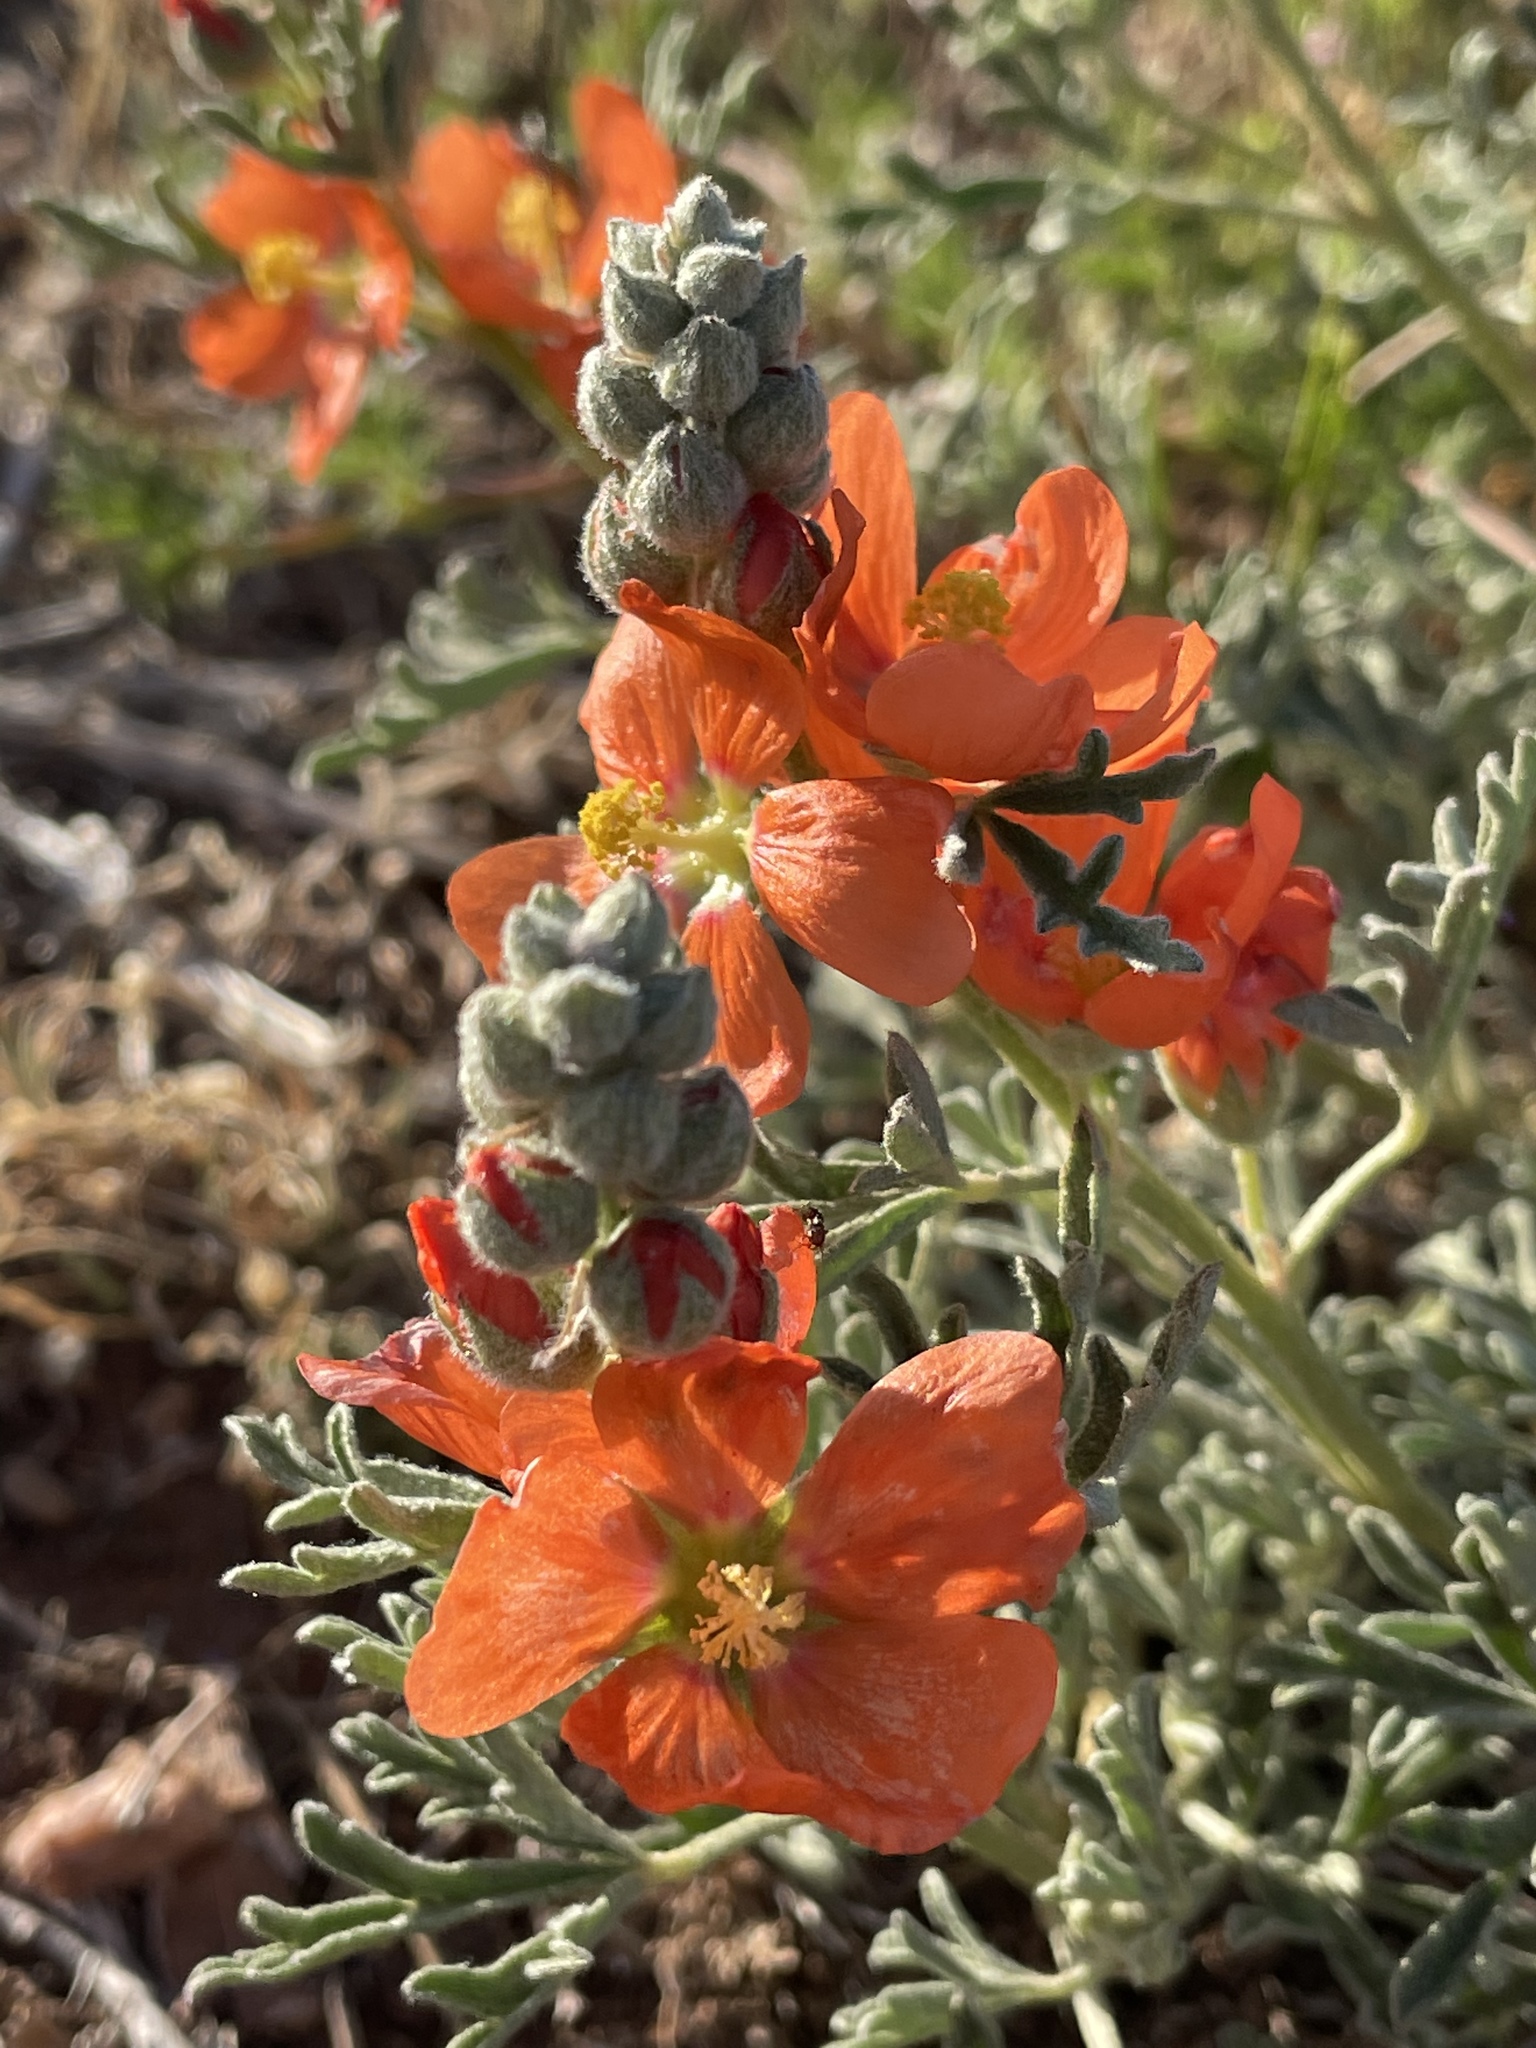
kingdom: Plantae
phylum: Tracheophyta
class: Magnoliopsida
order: Malvales
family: Malvaceae
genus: Sphaeralcea
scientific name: Sphaeralcea coccinea
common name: Moss-rose
